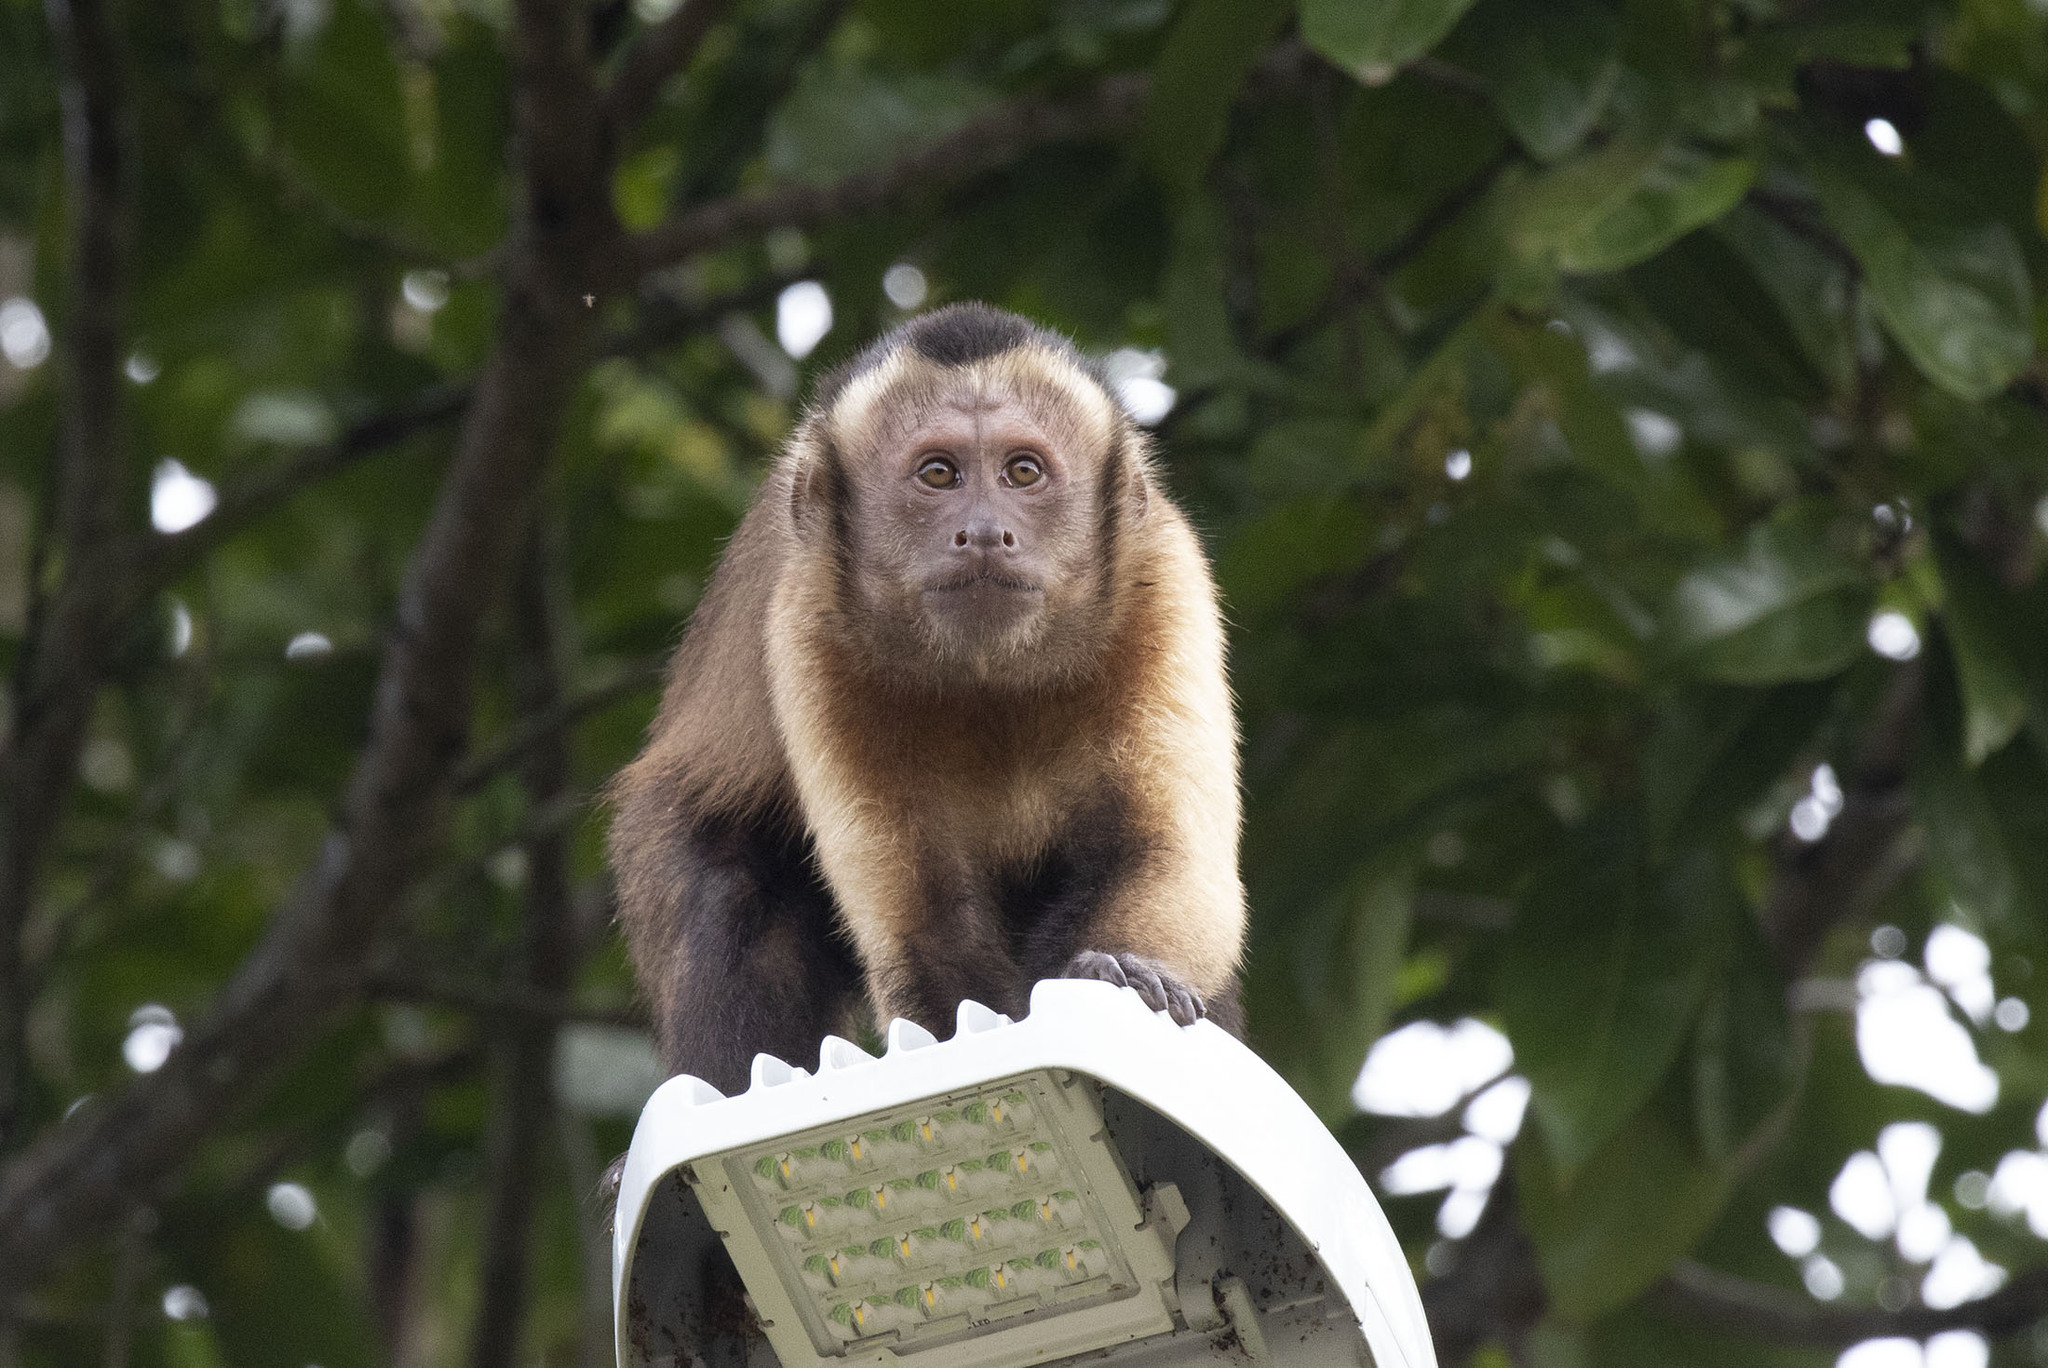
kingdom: Animalia
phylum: Chordata
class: Mammalia
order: Primates
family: Cebidae
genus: Sapajus
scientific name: Sapajus apella
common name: Tufted capuchin
